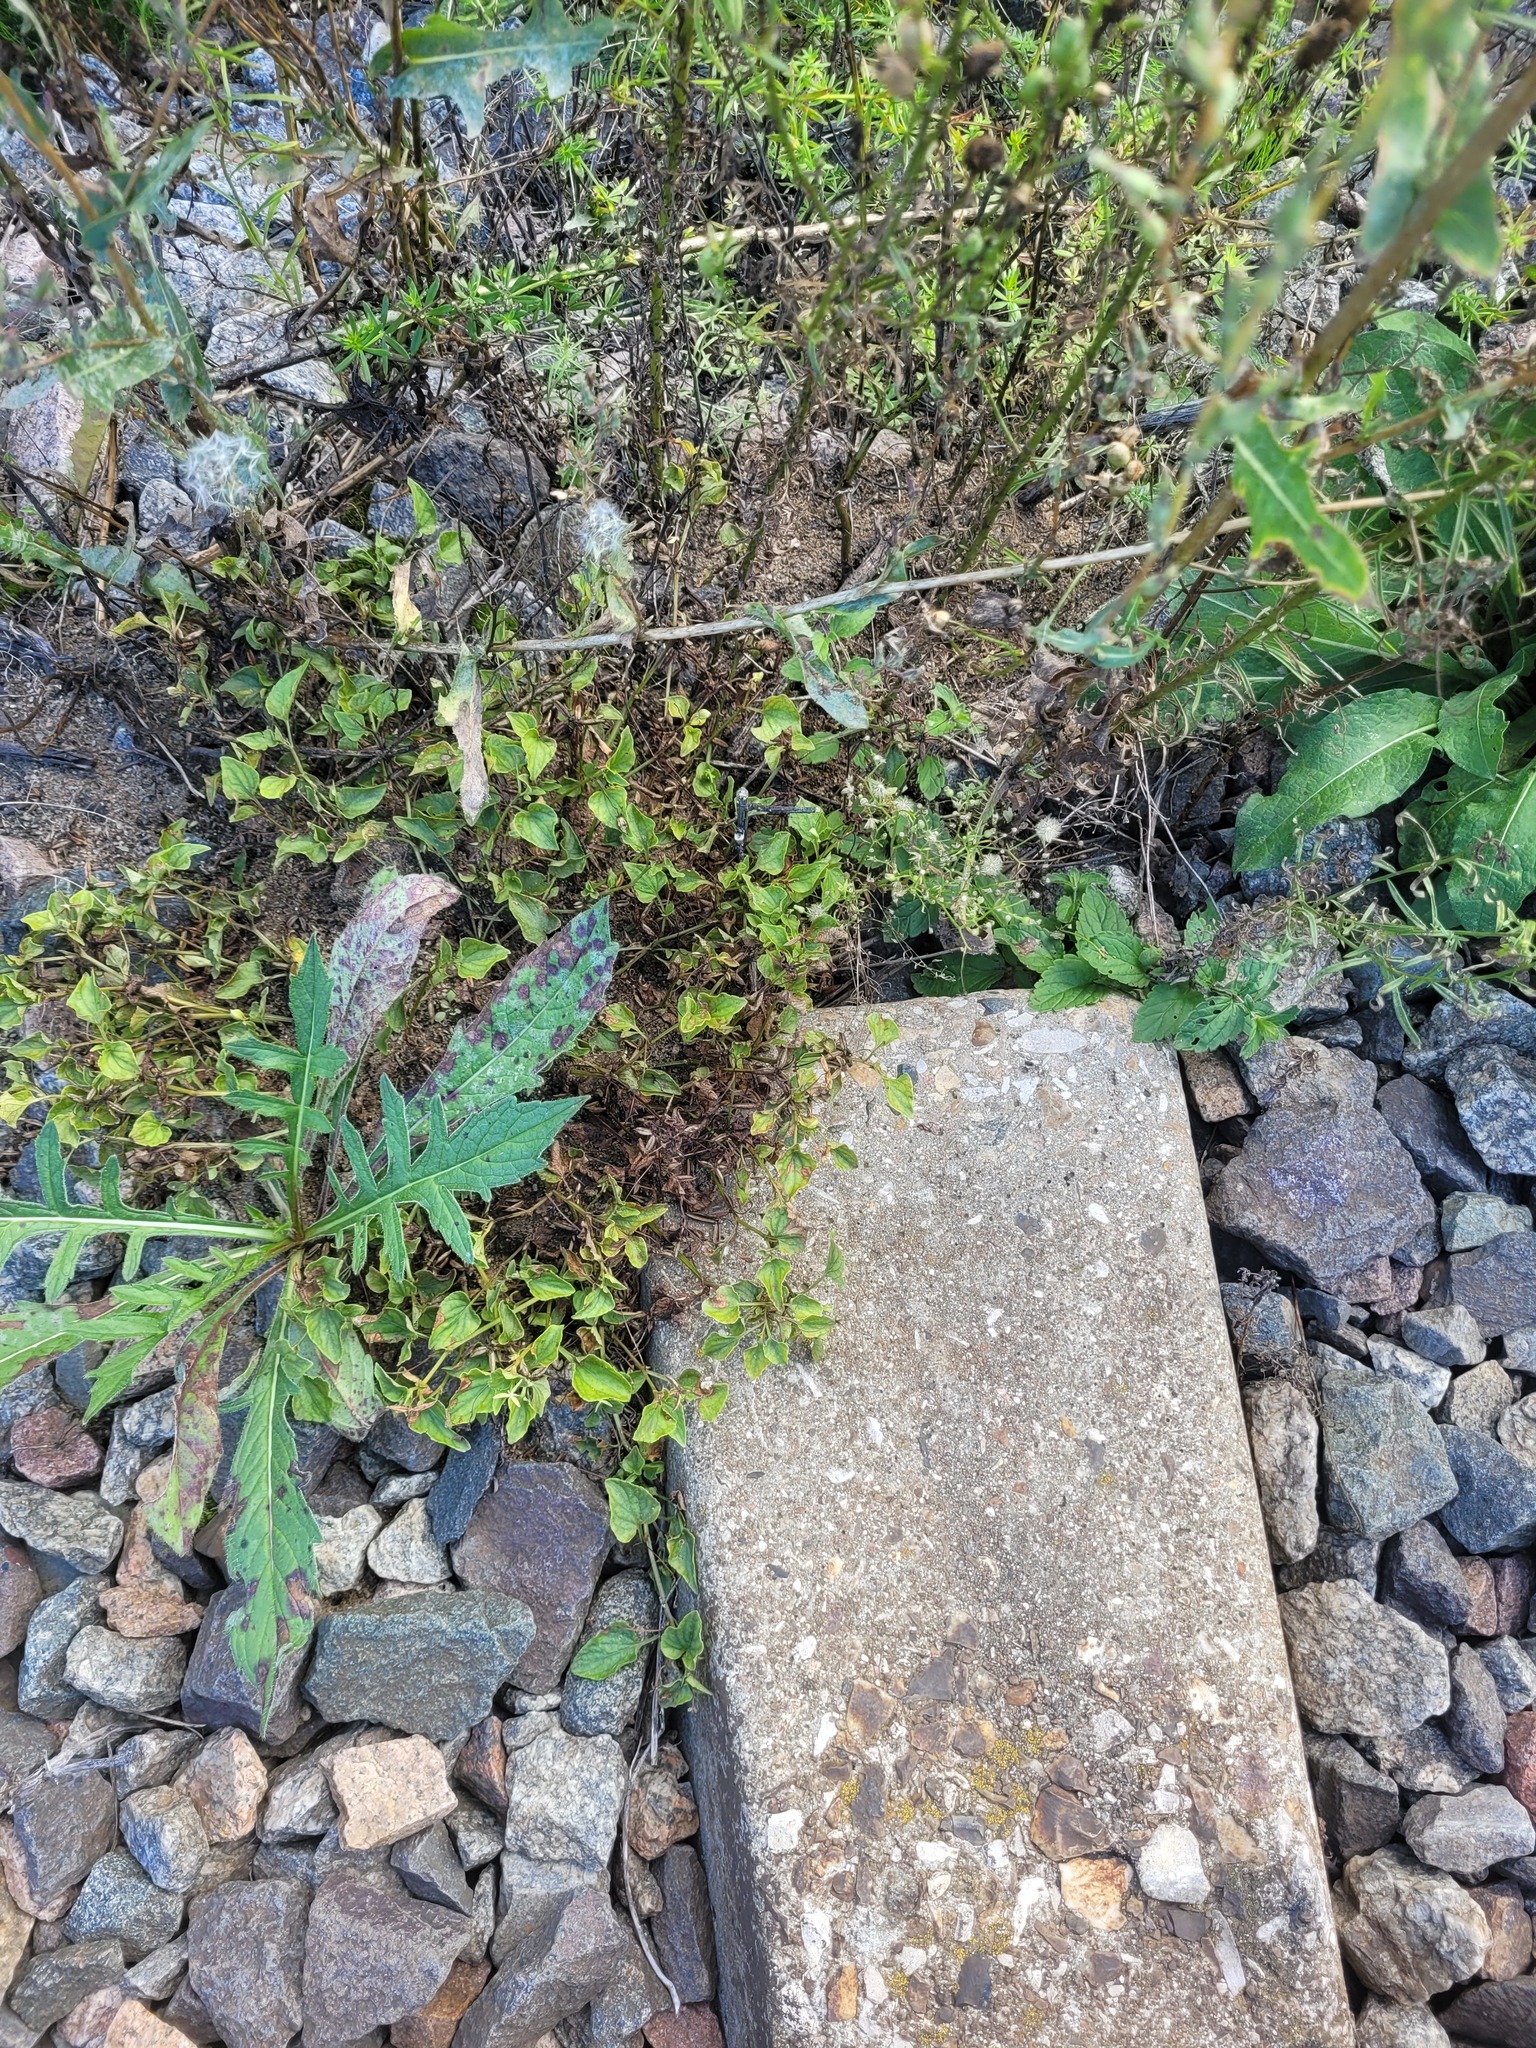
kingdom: Plantae
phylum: Tracheophyta
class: Magnoliopsida
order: Malpighiales
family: Violaceae
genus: Viola
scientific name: Viola canina
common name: Heath dog-violet
